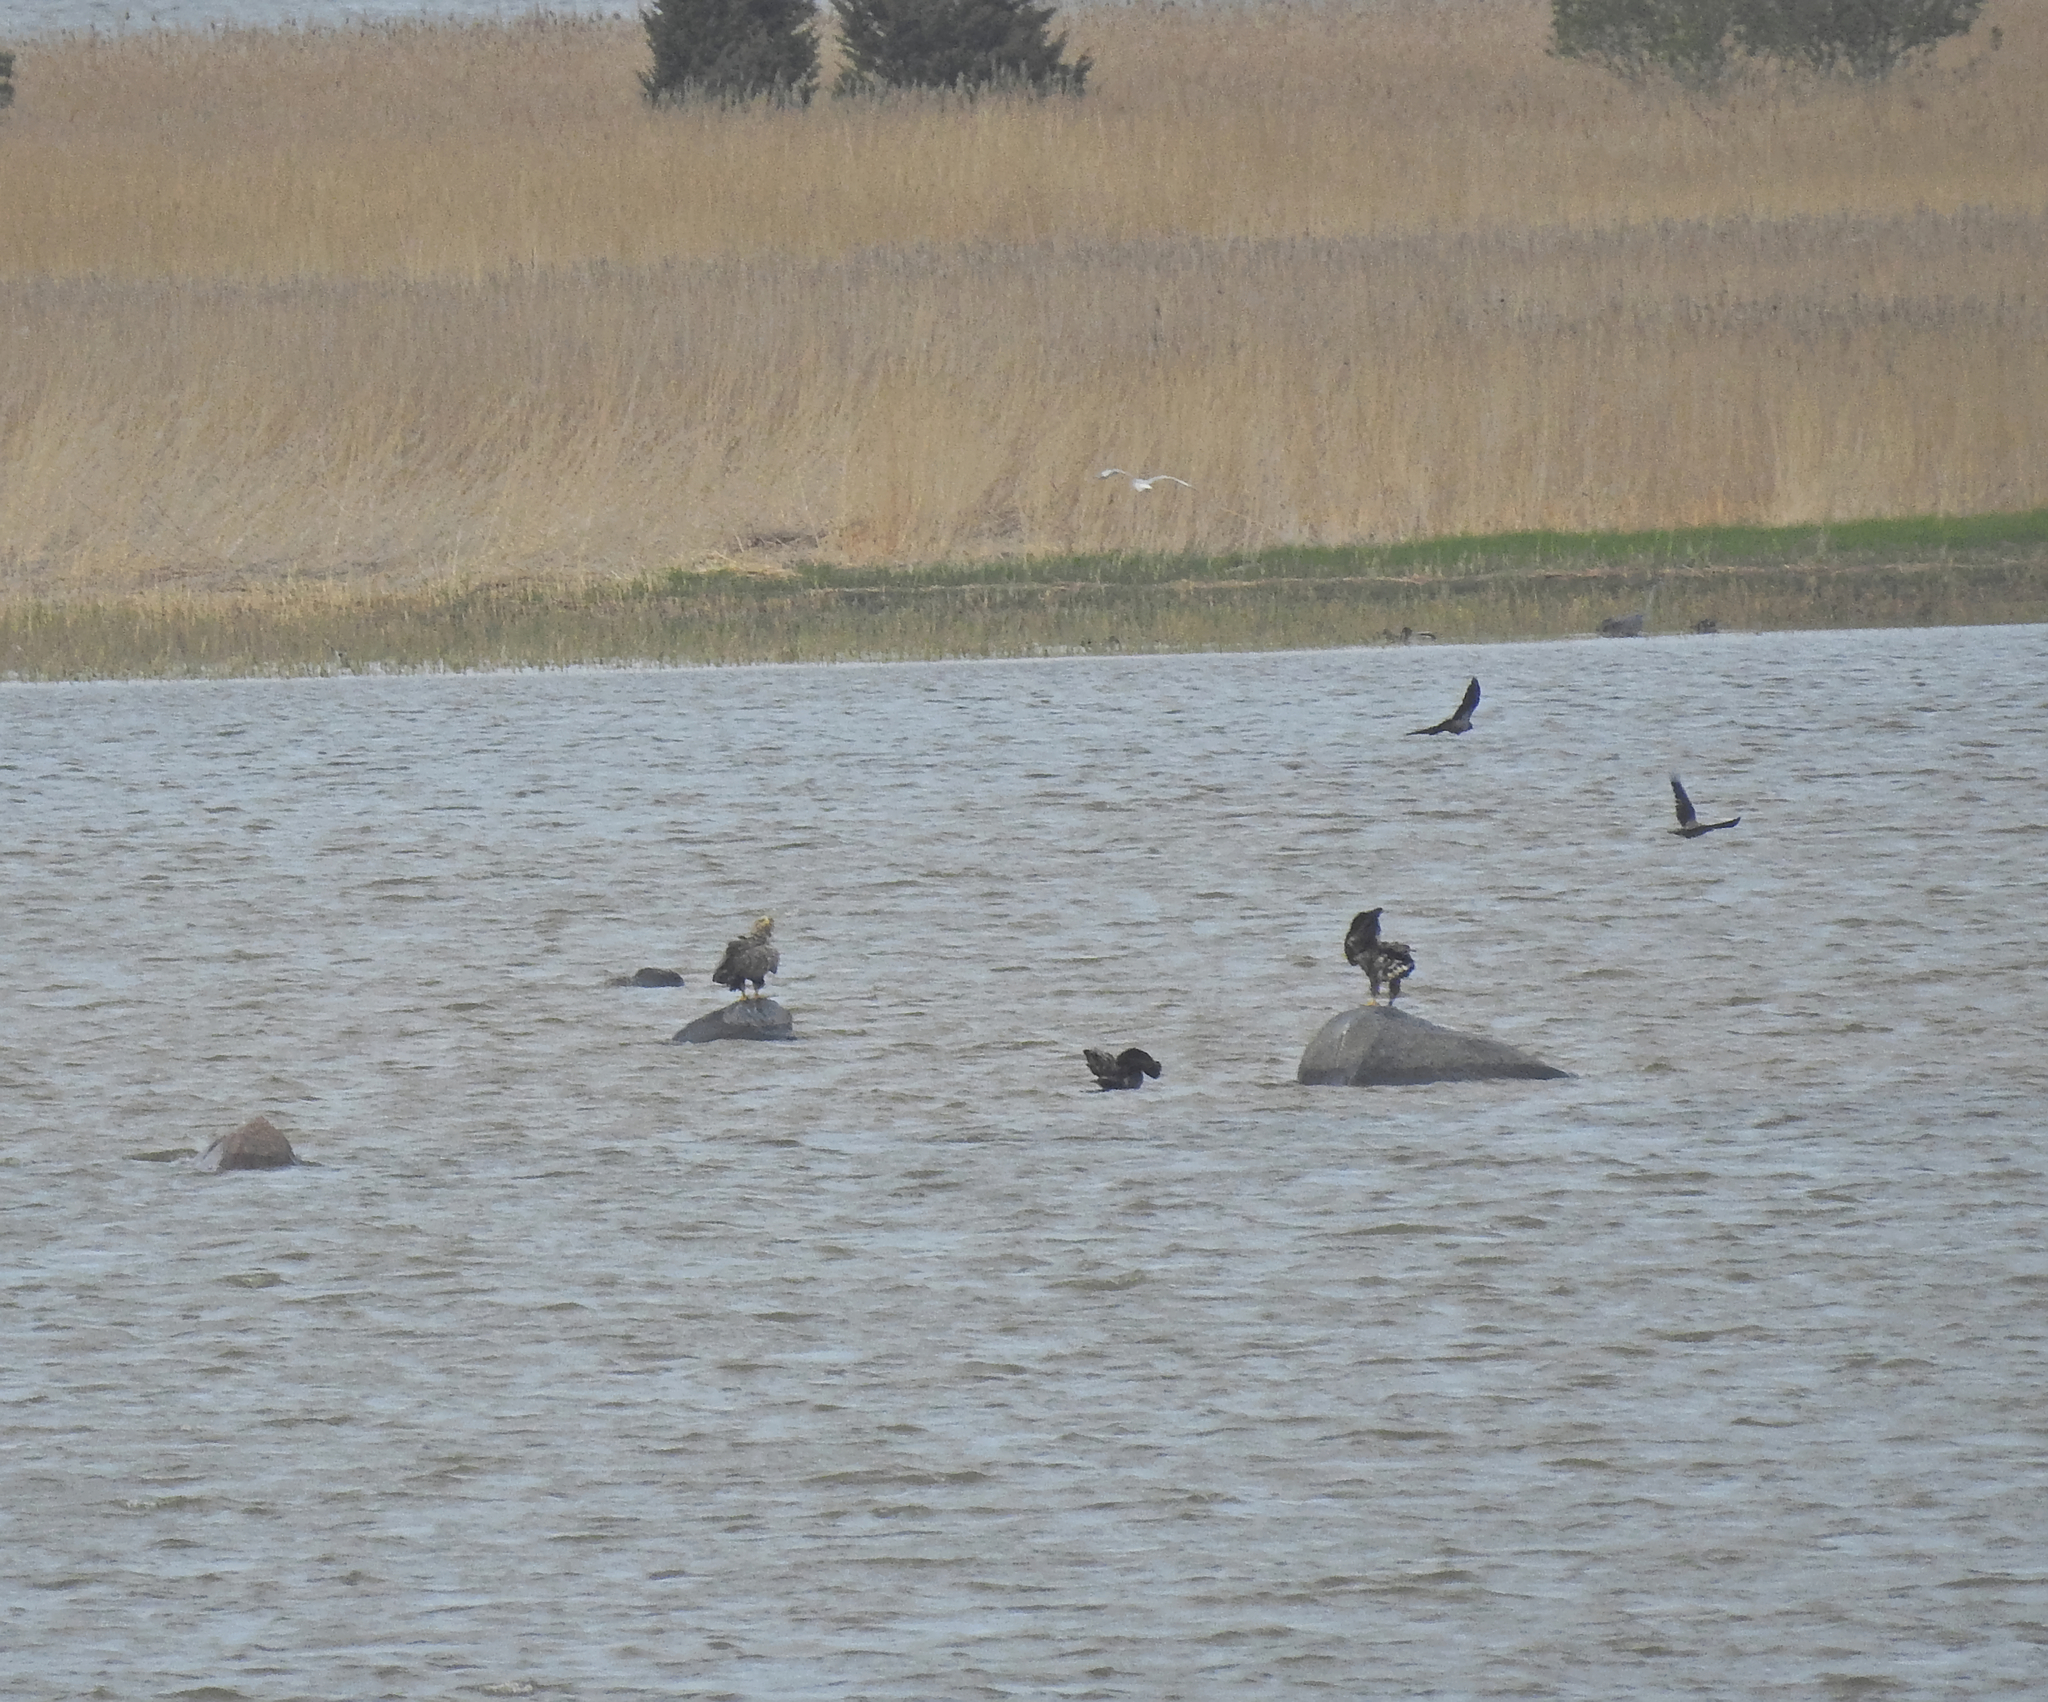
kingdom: Animalia
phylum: Chordata
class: Aves
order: Accipitriformes
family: Accipitridae
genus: Haliaeetus
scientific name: Haliaeetus albicilla
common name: White-tailed eagle
